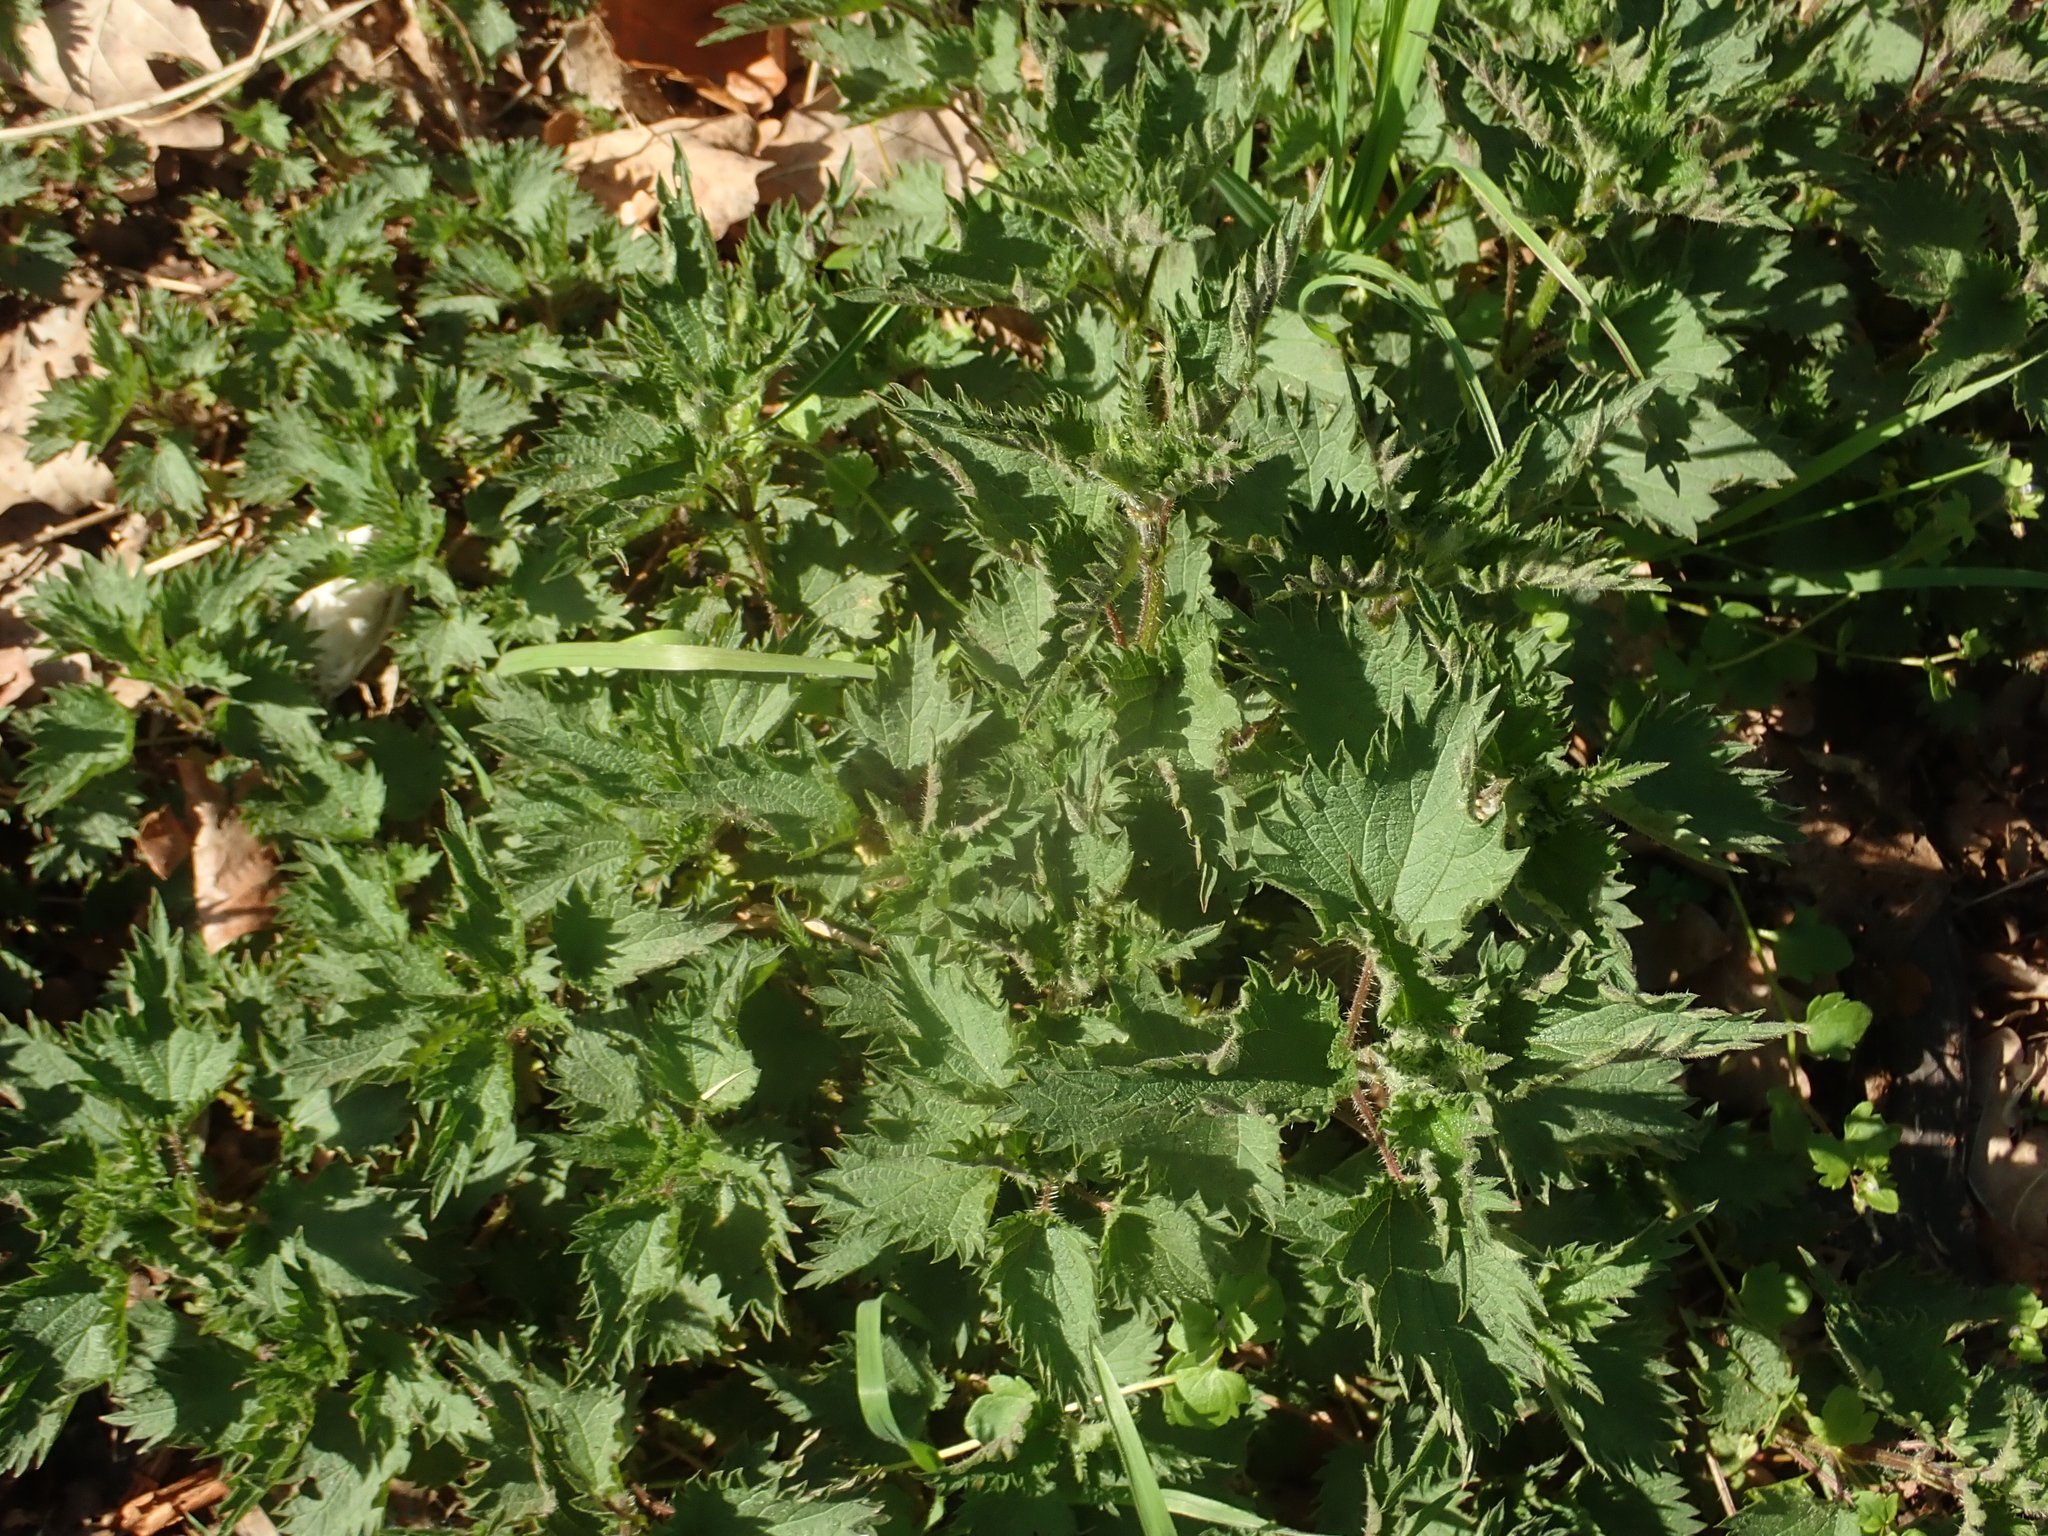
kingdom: Plantae
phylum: Tracheophyta
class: Magnoliopsida
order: Rosales
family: Urticaceae
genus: Urtica
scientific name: Urtica dioica
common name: Common nettle
